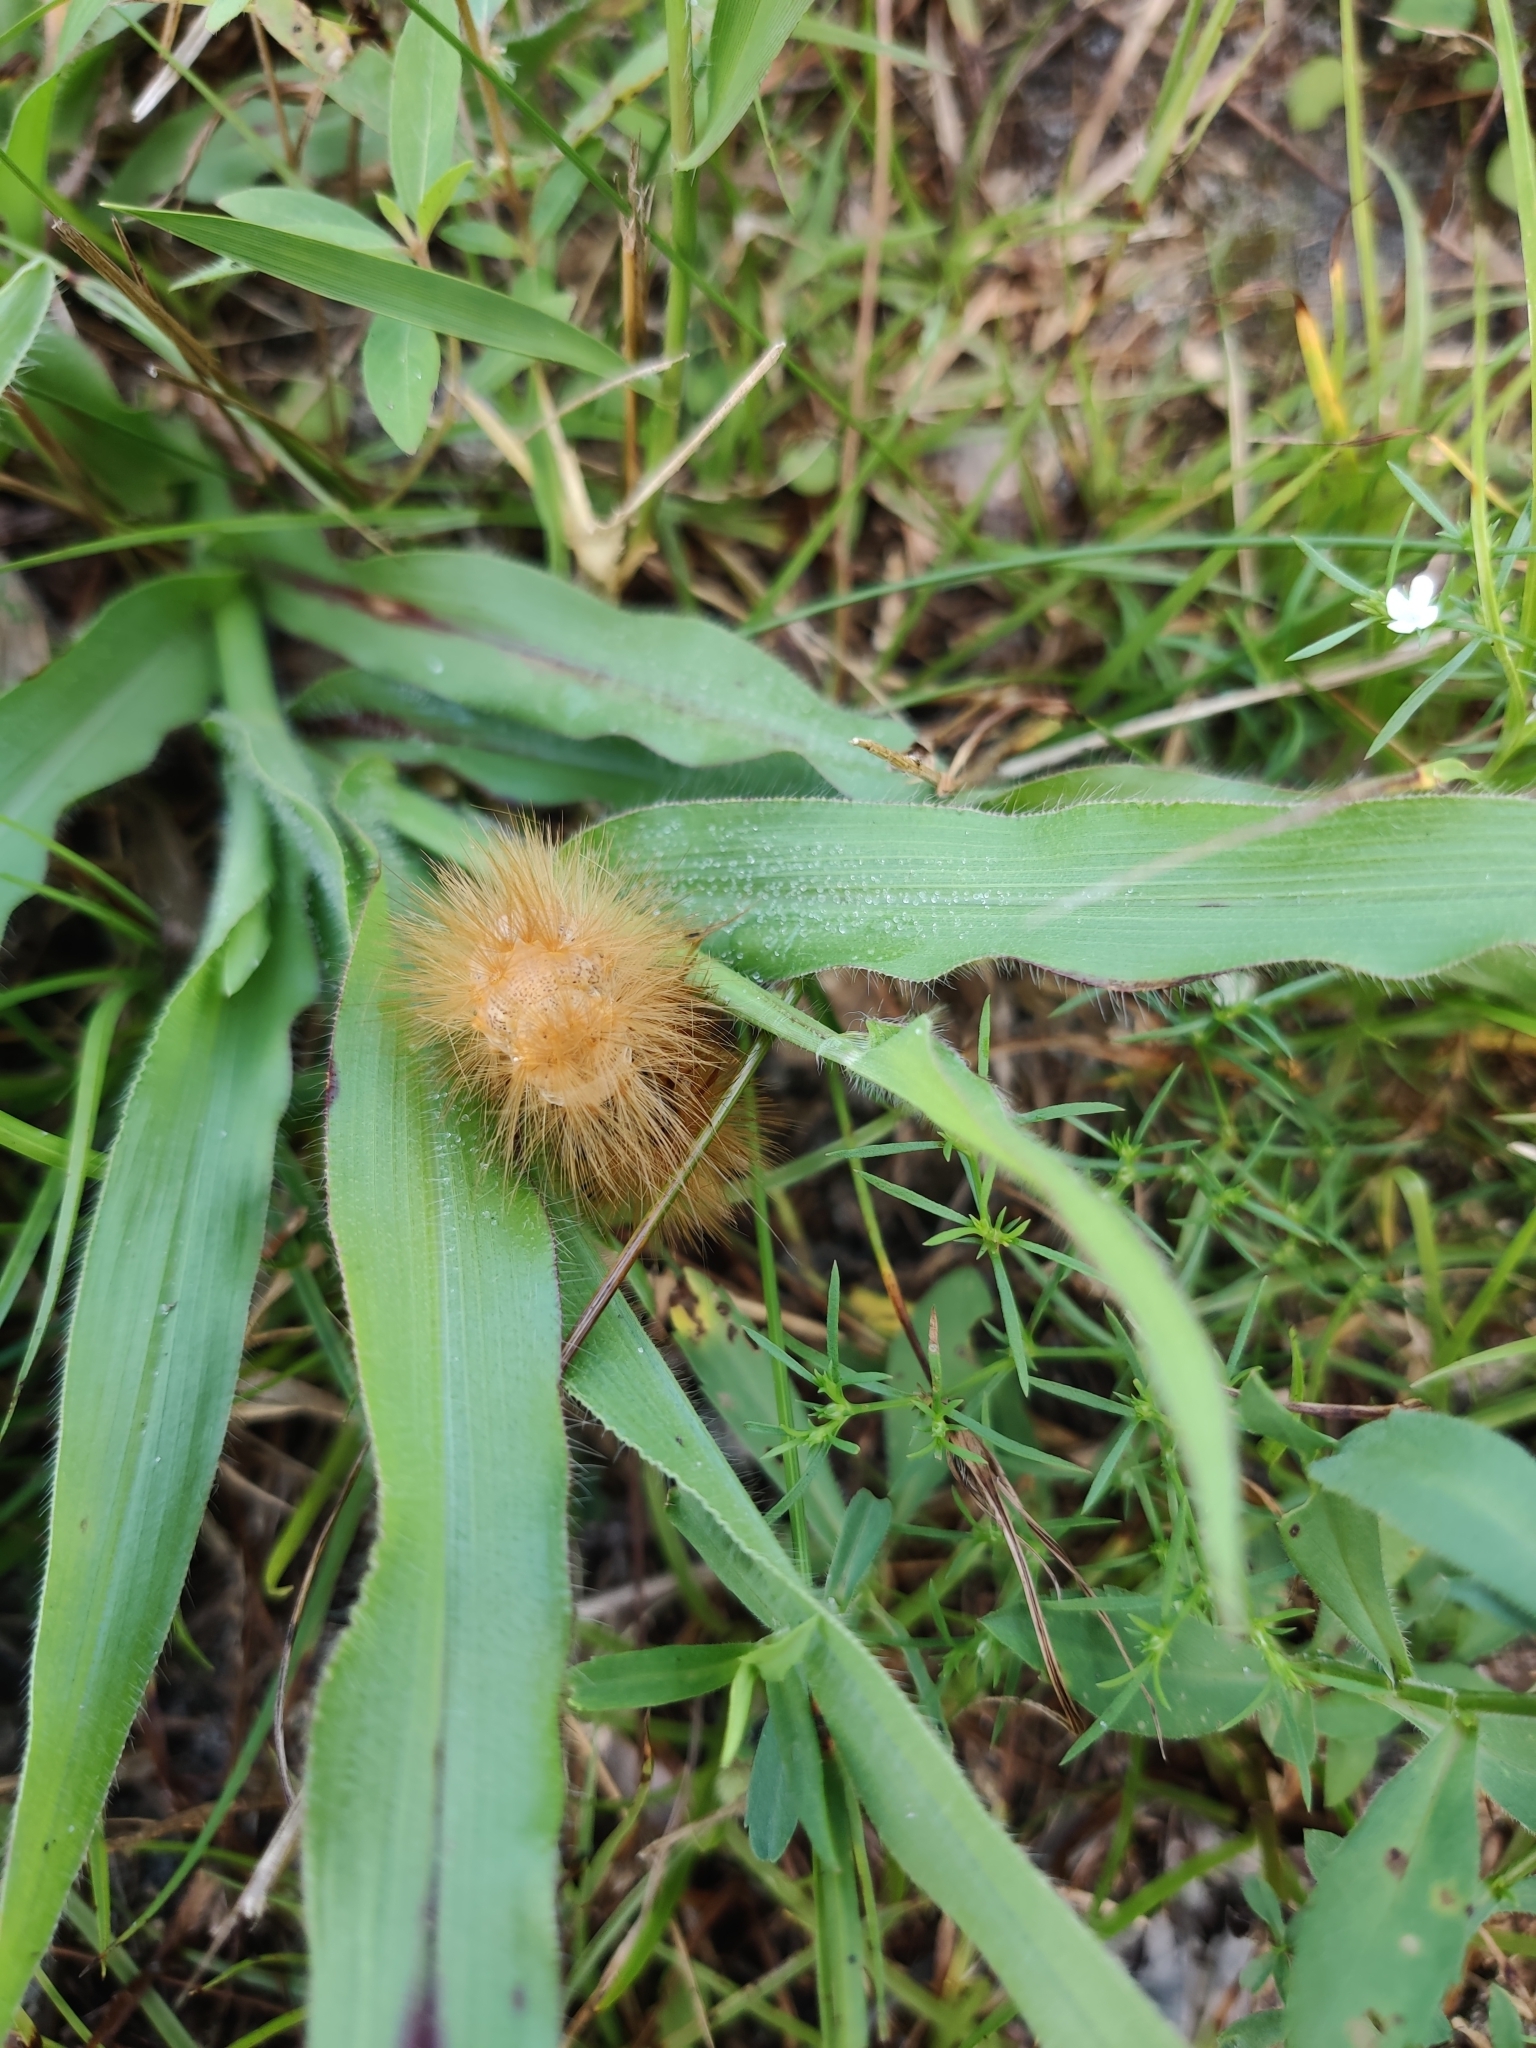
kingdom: Animalia
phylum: Arthropoda
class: Insecta
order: Lepidoptera
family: Erebidae
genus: Estigmene
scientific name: Estigmene acrea
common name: Salt marsh moth
